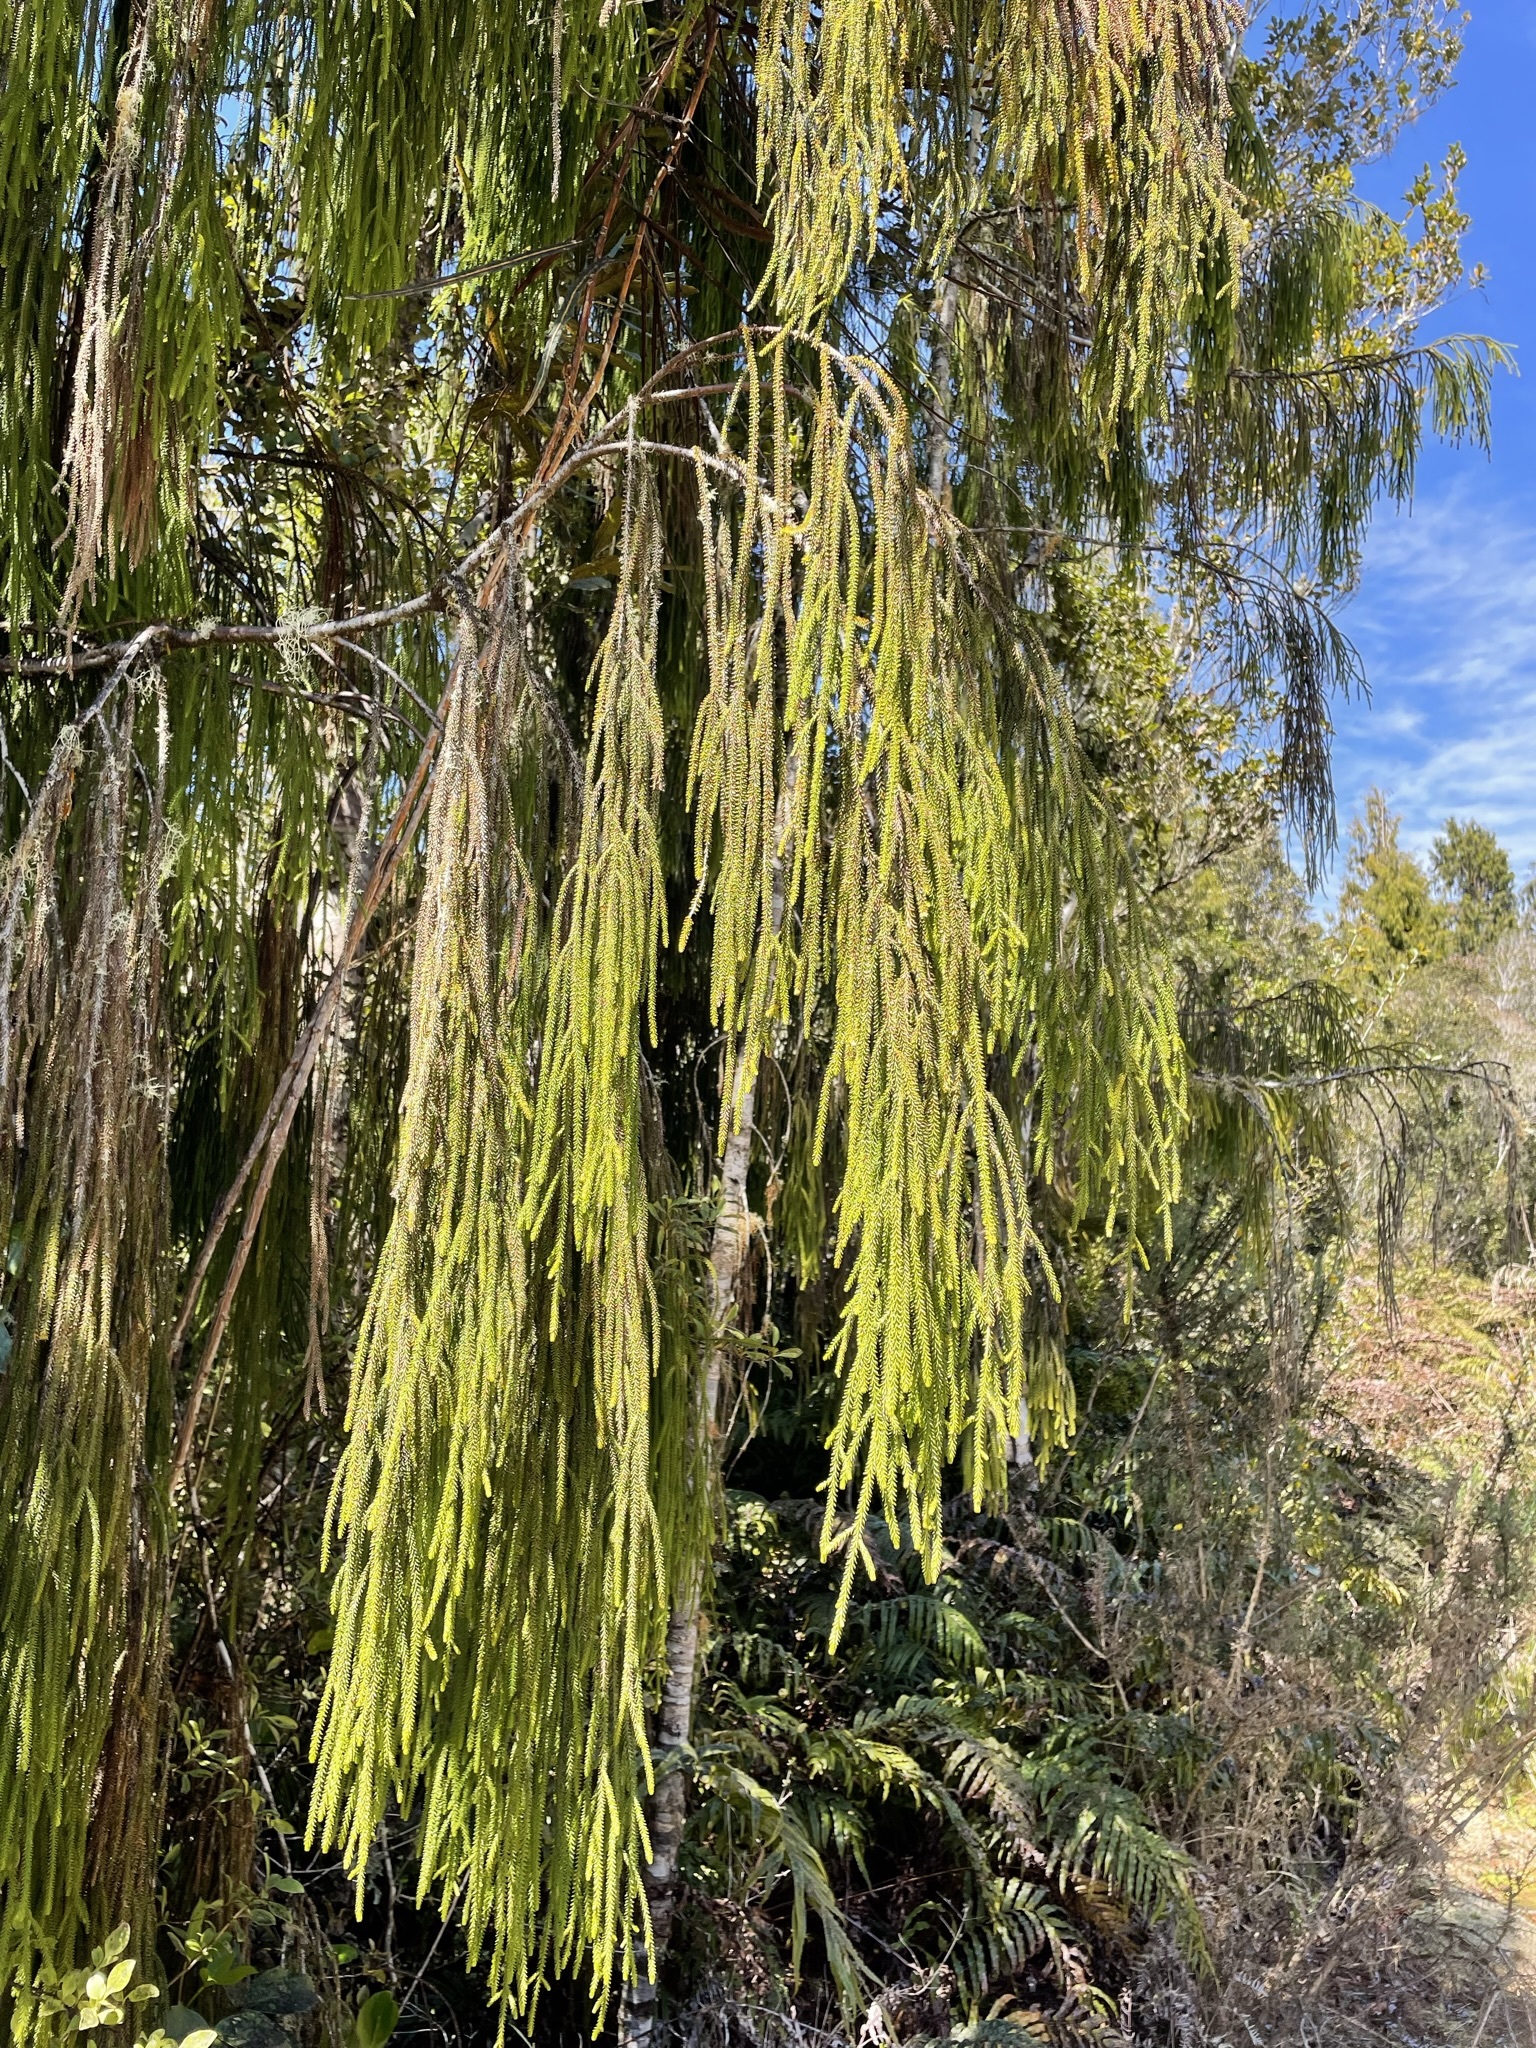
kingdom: Plantae
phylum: Tracheophyta
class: Pinopsida
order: Pinales
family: Podocarpaceae
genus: Dacrydium
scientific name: Dacrydium cupressinum
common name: Red pine
